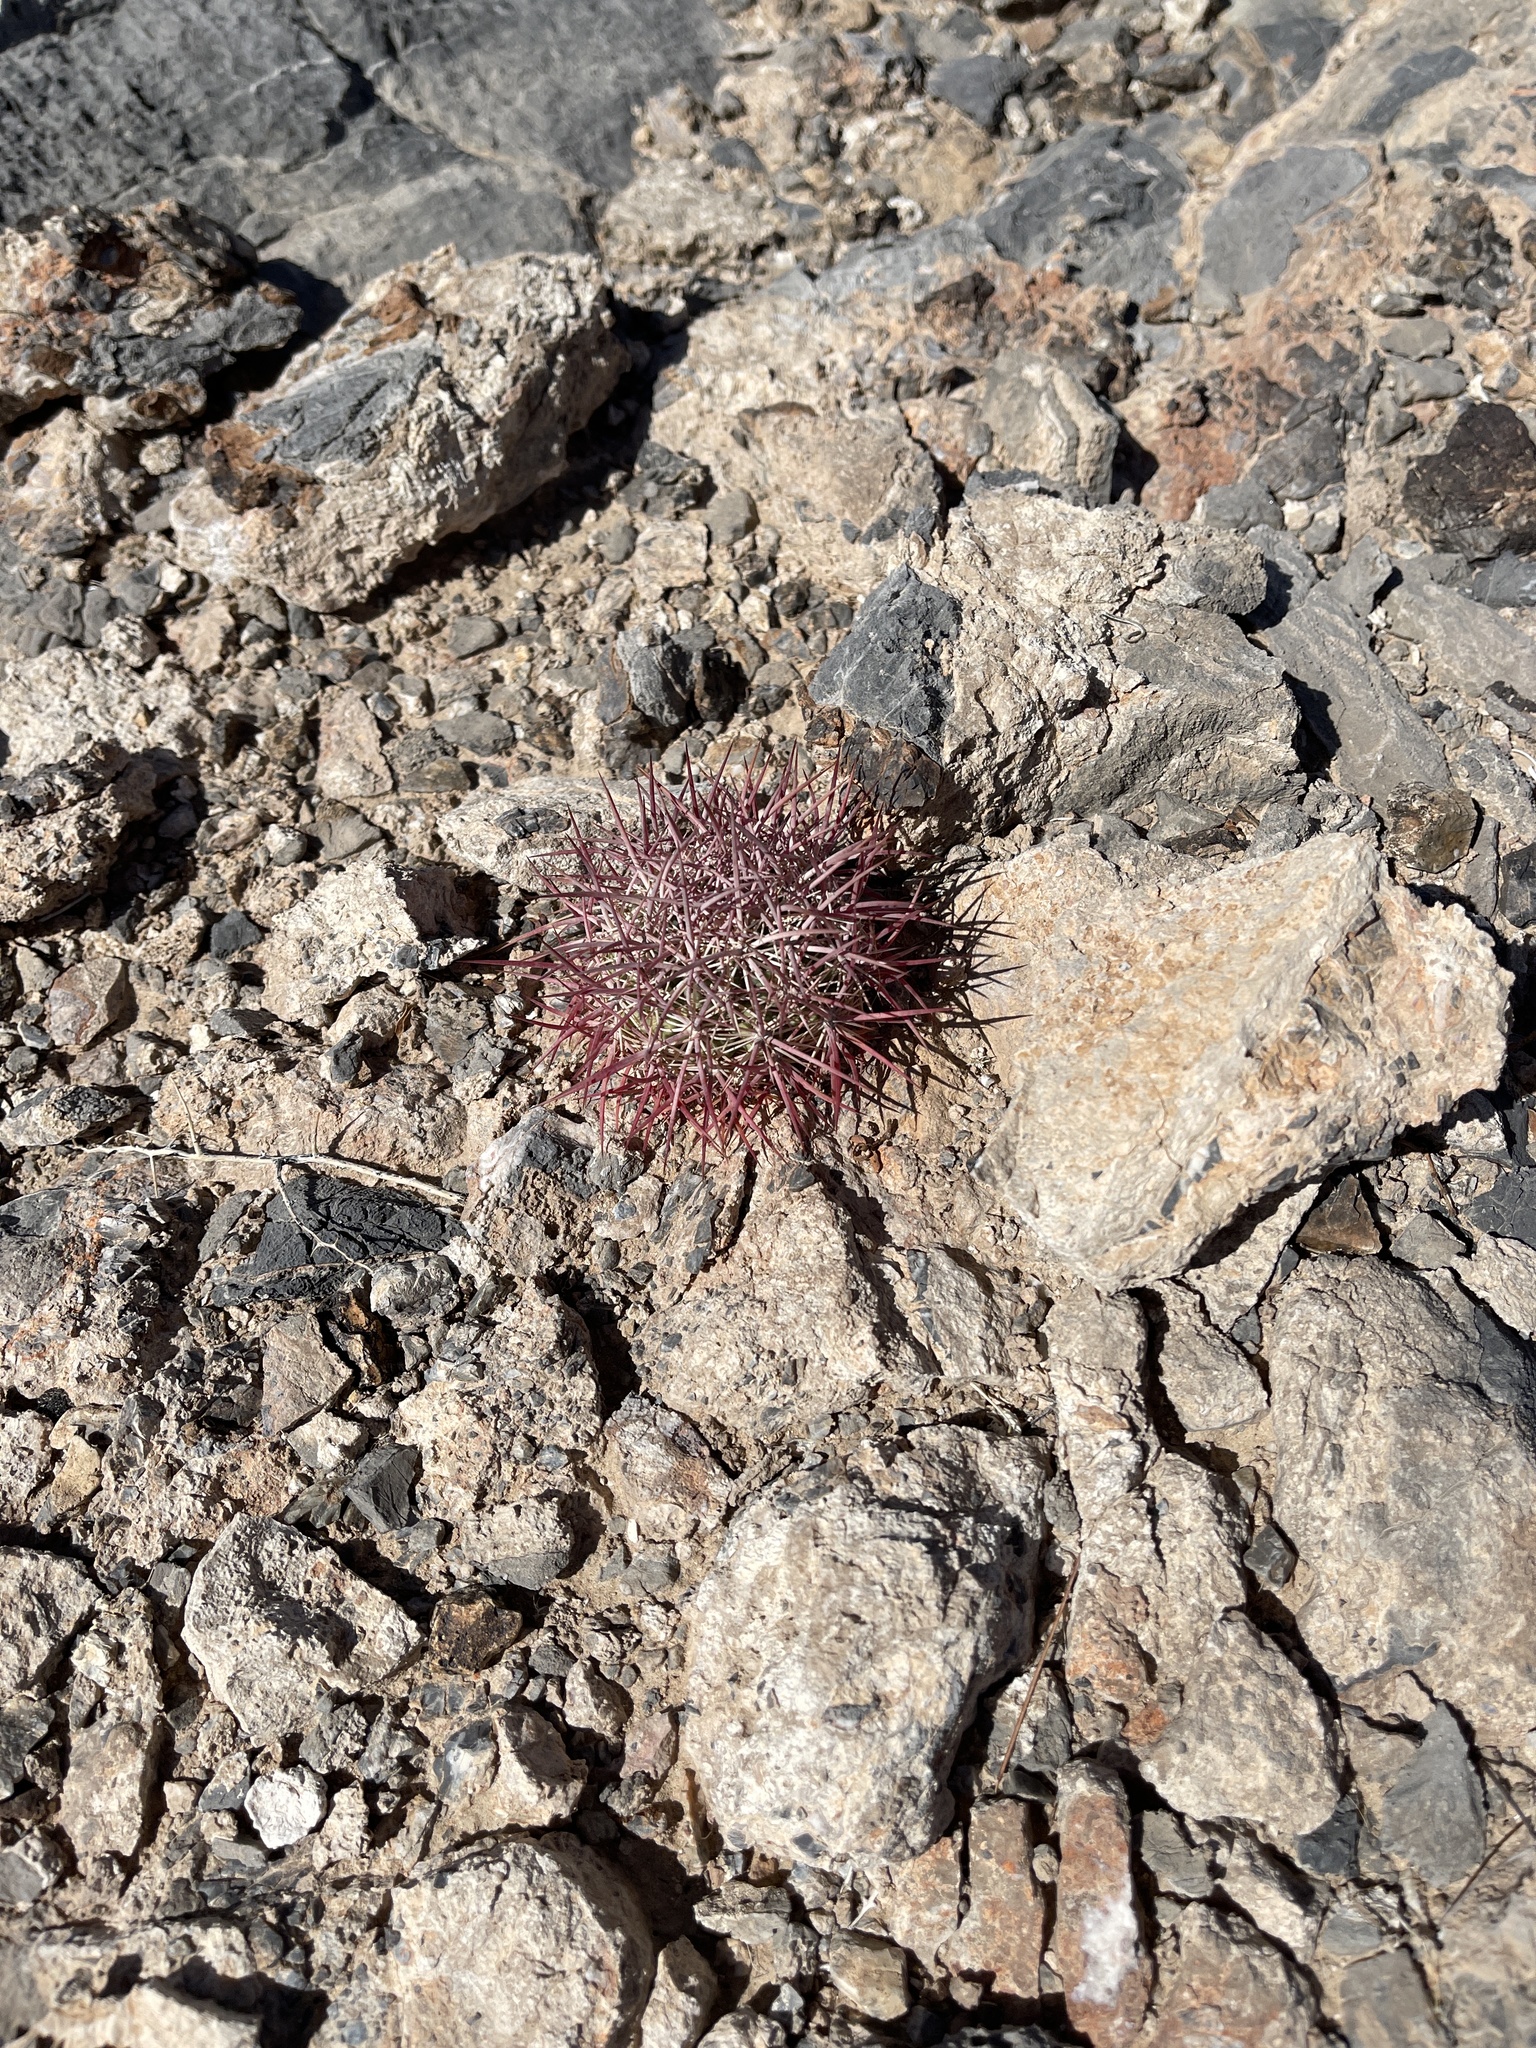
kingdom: Plantae
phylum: Tracheophyta
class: Magnoliopsida
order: Caryophyllales
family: Cactaceae
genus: Sclerocactus
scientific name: Sclerocactus johnsonii
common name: Eight-spine fishhook cactus
